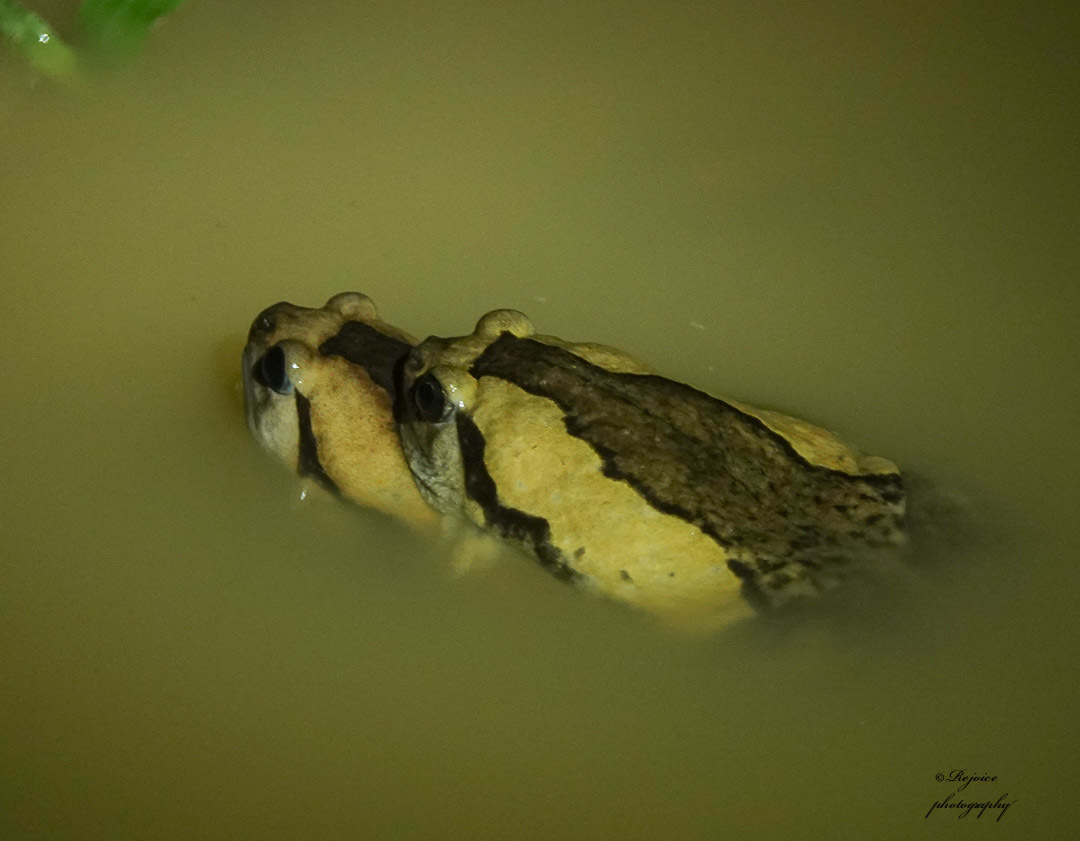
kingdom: Animalia
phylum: Chordata
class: Amphibia
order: Anura
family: Microhylidae
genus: Kaloula
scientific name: Kaloula pulchra
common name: Common,banded bullfrog
